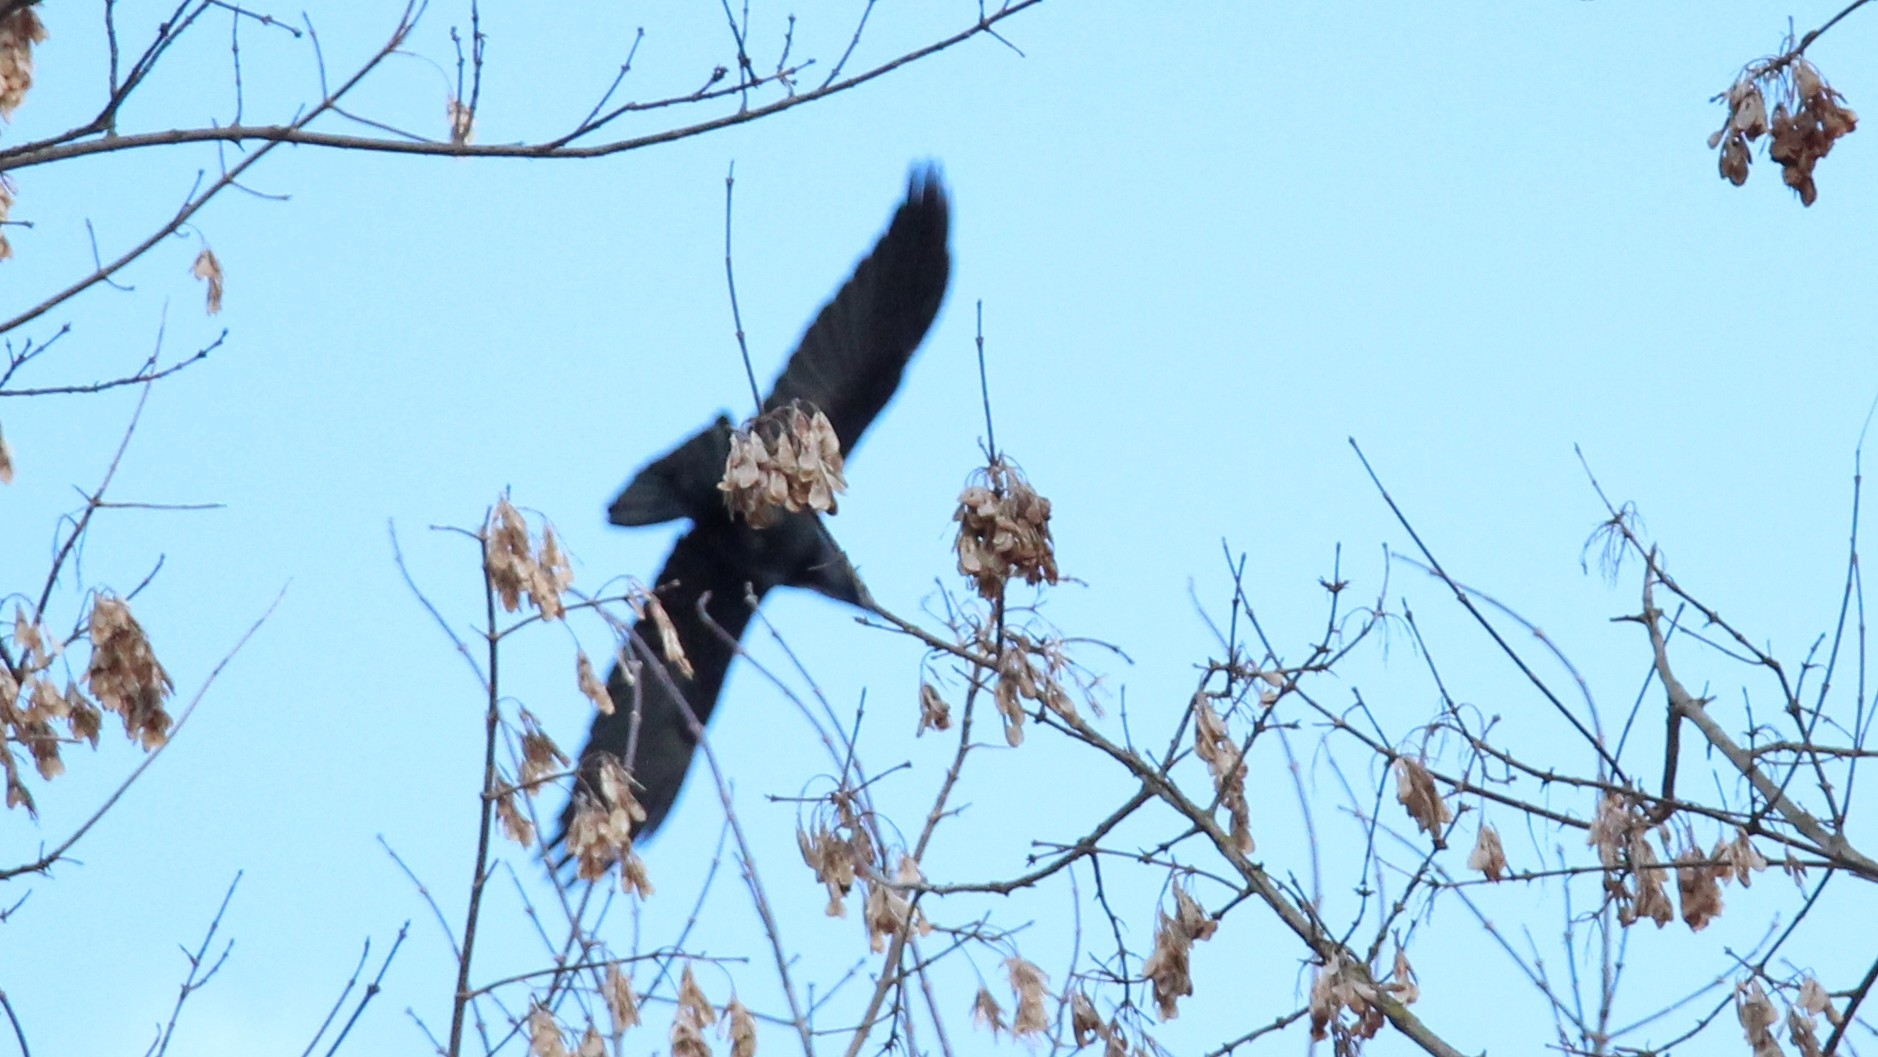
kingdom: Animalia
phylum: Chordata
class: Aves
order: Passeriformes
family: Corvidae
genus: Corvus
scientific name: Corvus corax
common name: Common raven
